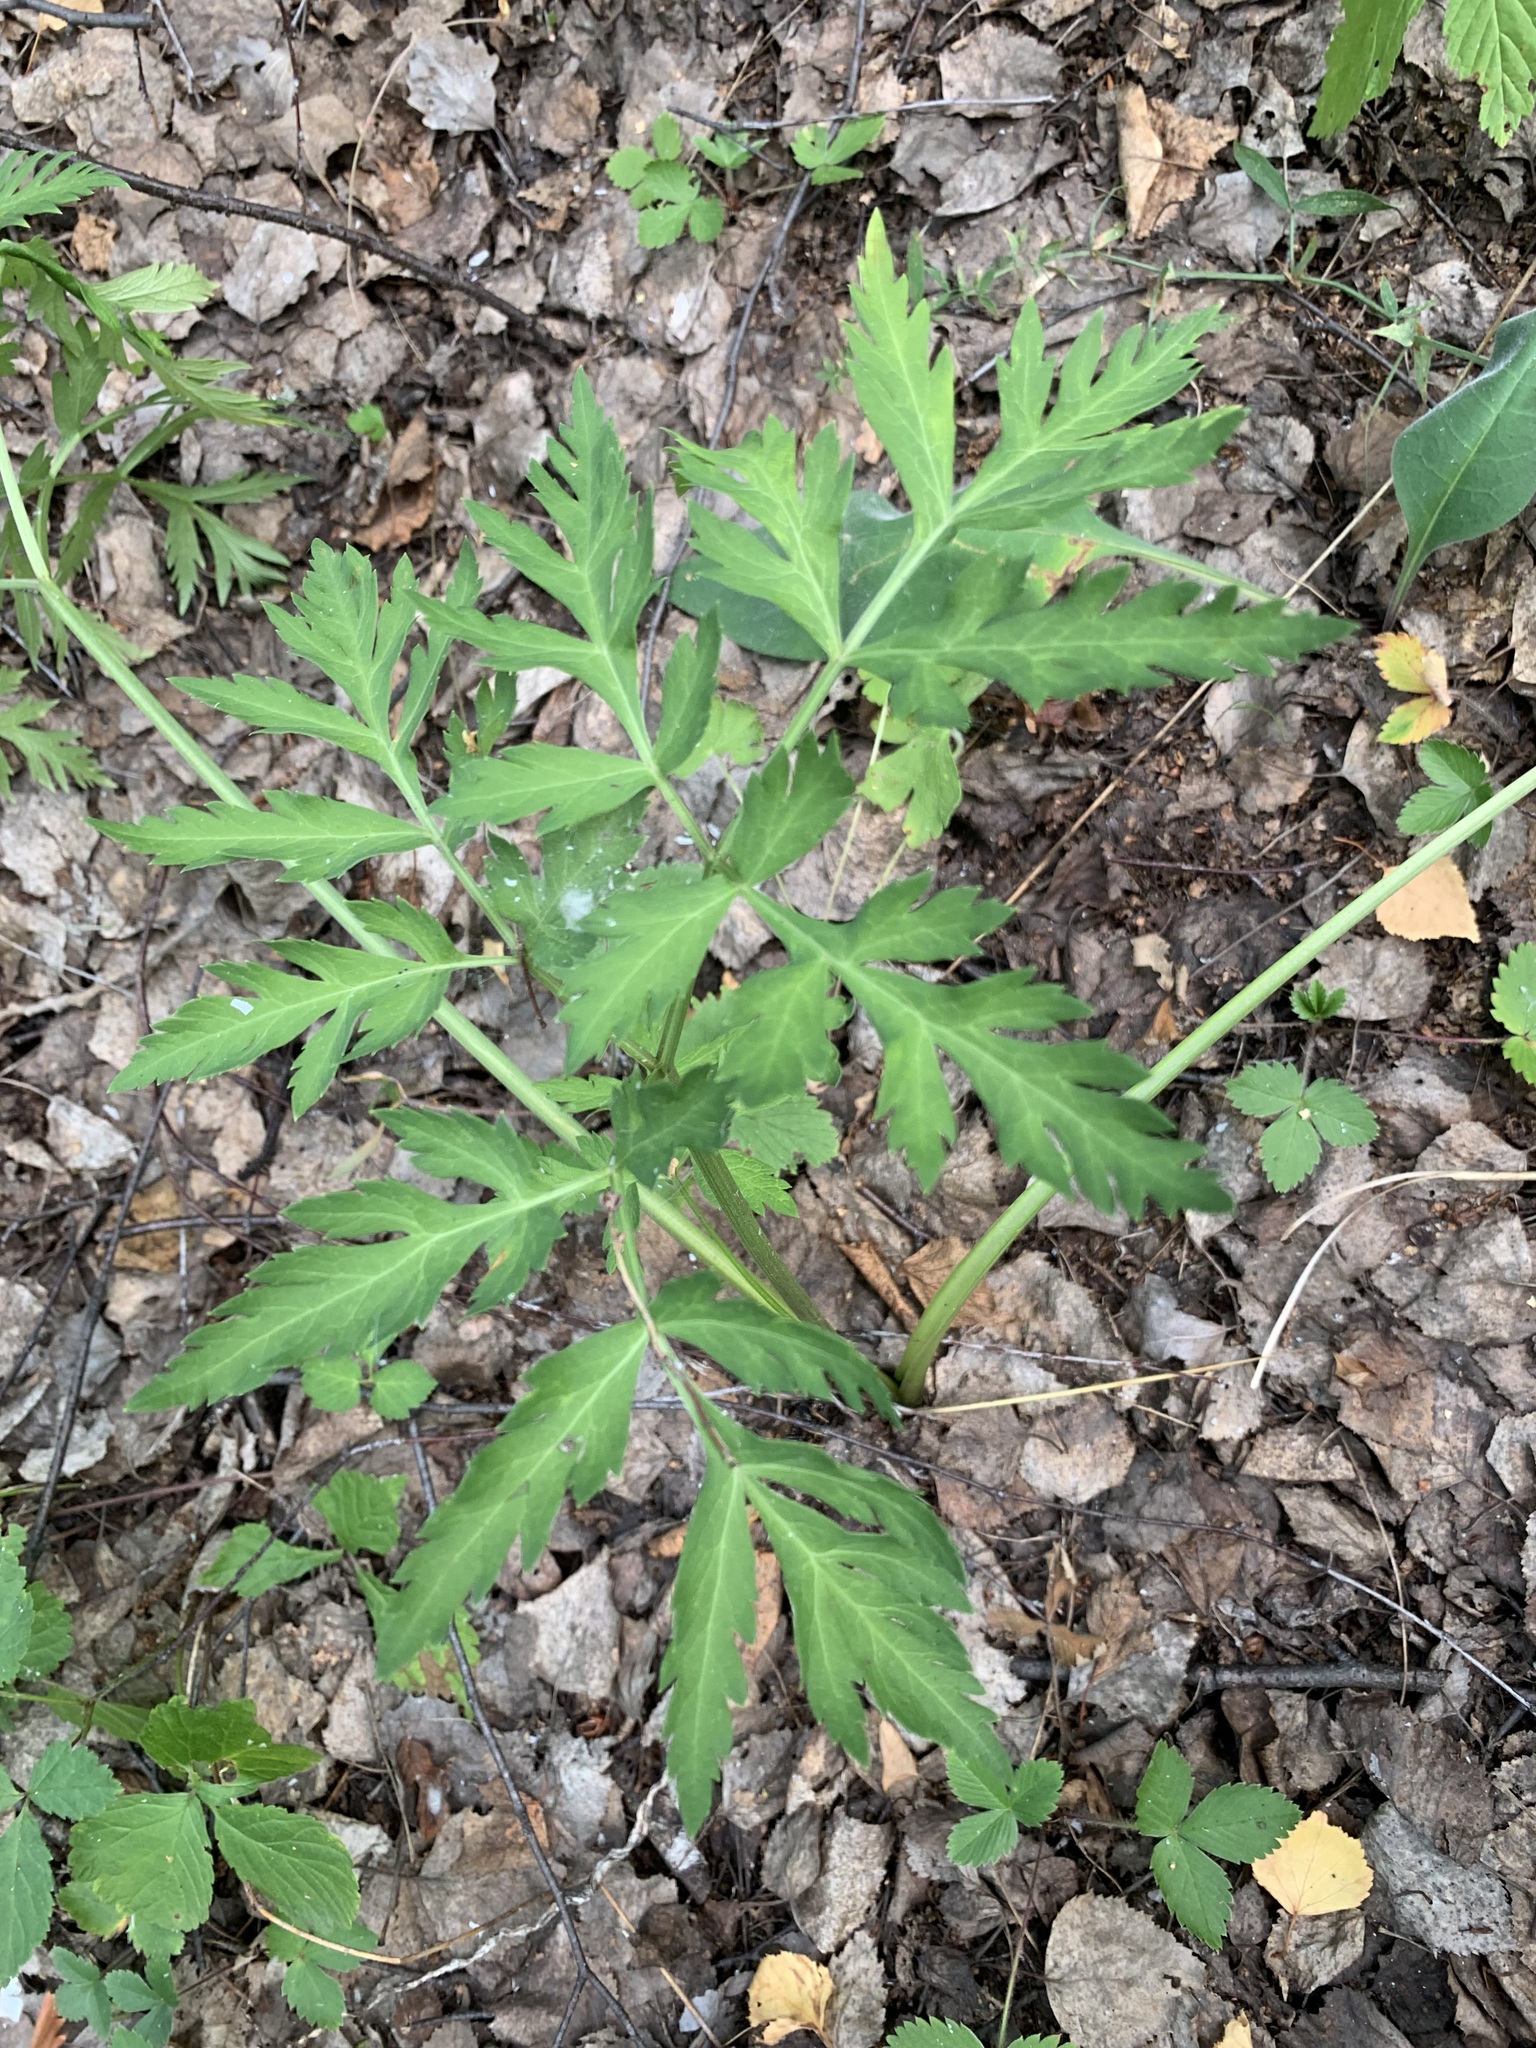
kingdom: Plantae
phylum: Tracheophyta
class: Magnoliopsida
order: Apiales
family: Apiaceae
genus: Pleurospermum
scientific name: Pleurospermum uralense
